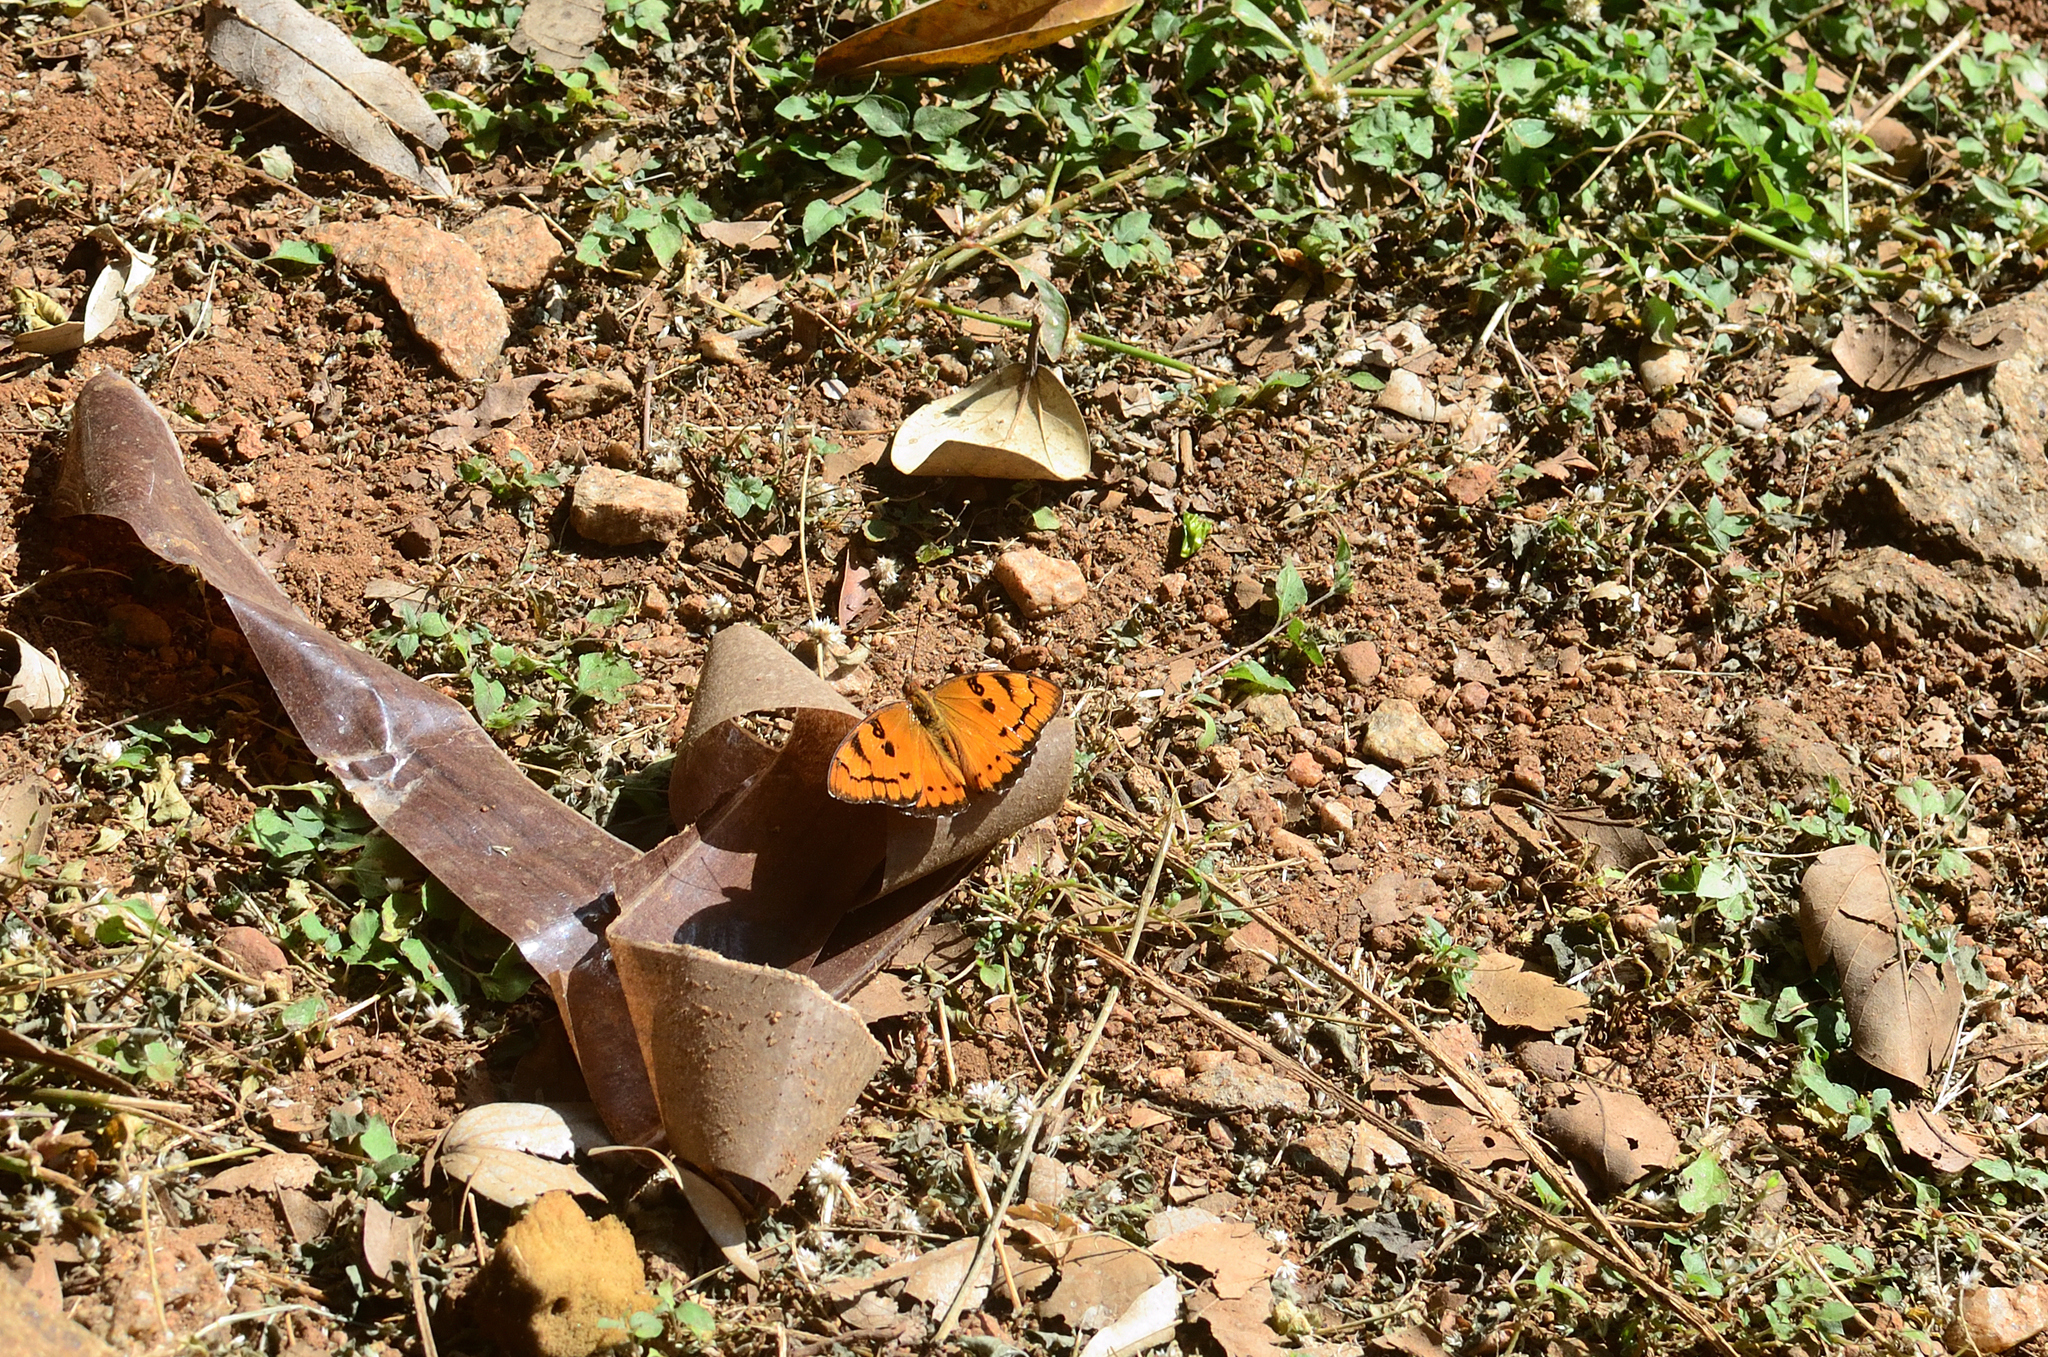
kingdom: Animalia
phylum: Arthropoda
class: Insecta
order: Lepidoptera
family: Nymphalidae
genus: Euthalia
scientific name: Euthalia nais
